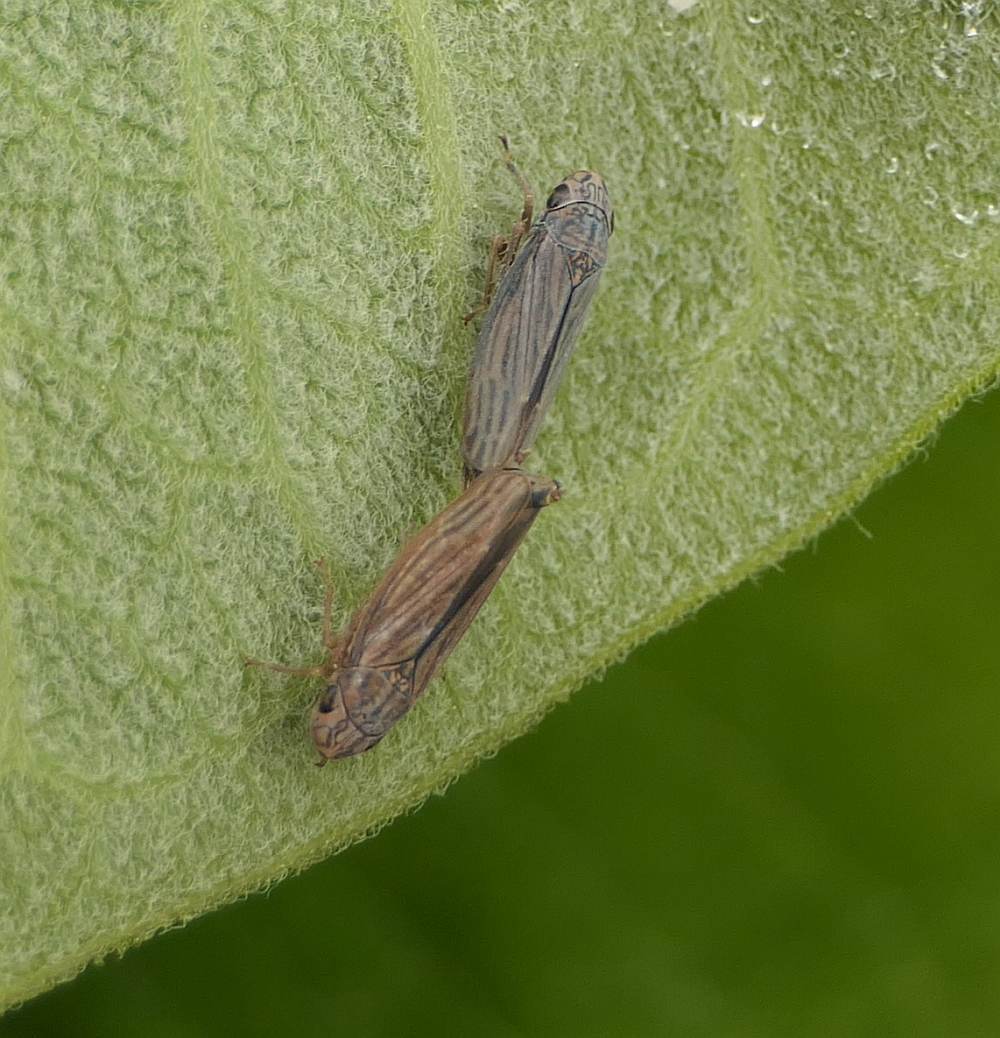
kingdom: Animalia
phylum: Arthropoda
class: Insecta
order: Hemiptera
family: Cicadellidae
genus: Neokolla
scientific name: Neokolla hieroglyphica
